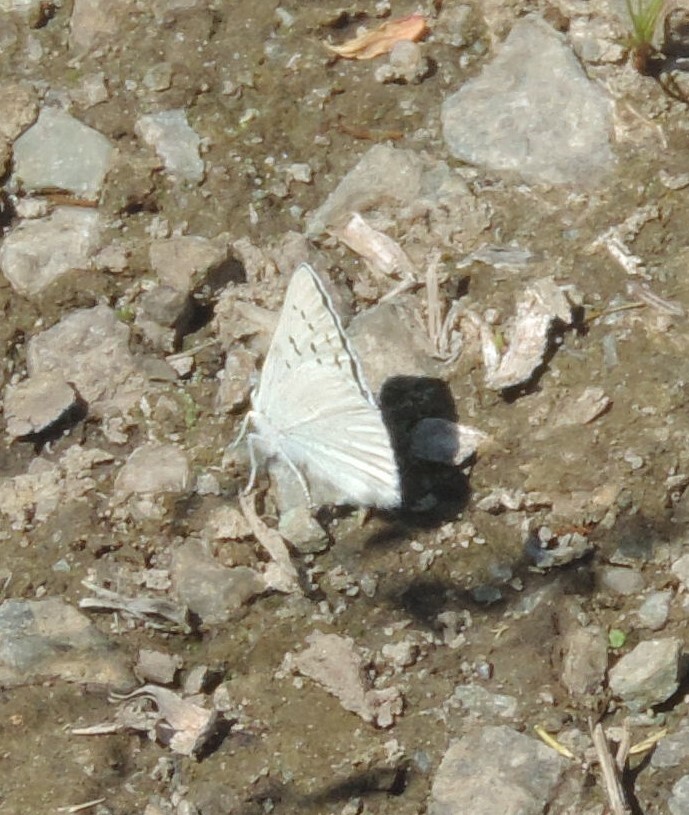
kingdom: Animalia
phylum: Arthropoda
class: Insecta
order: Lepidoptera
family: Lycaenidae
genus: Tharsalea
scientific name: Tharsalea heteronea
